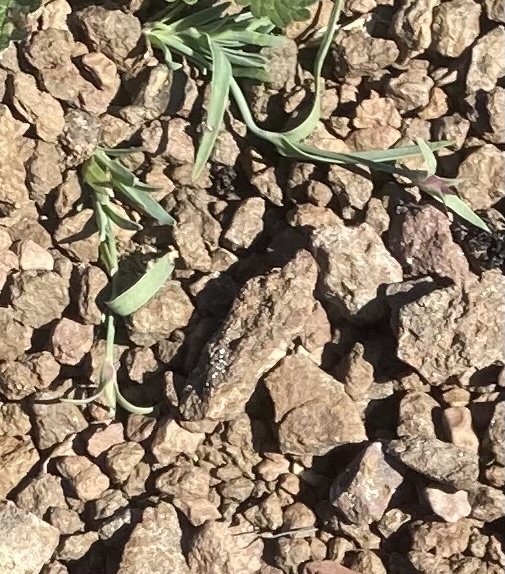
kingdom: Plantae
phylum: Tracheophyta
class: Magnoliopsida
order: Caryophyllales
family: Caryophyllaceae
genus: Dianthus
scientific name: Dianthus repens
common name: Northern pink
